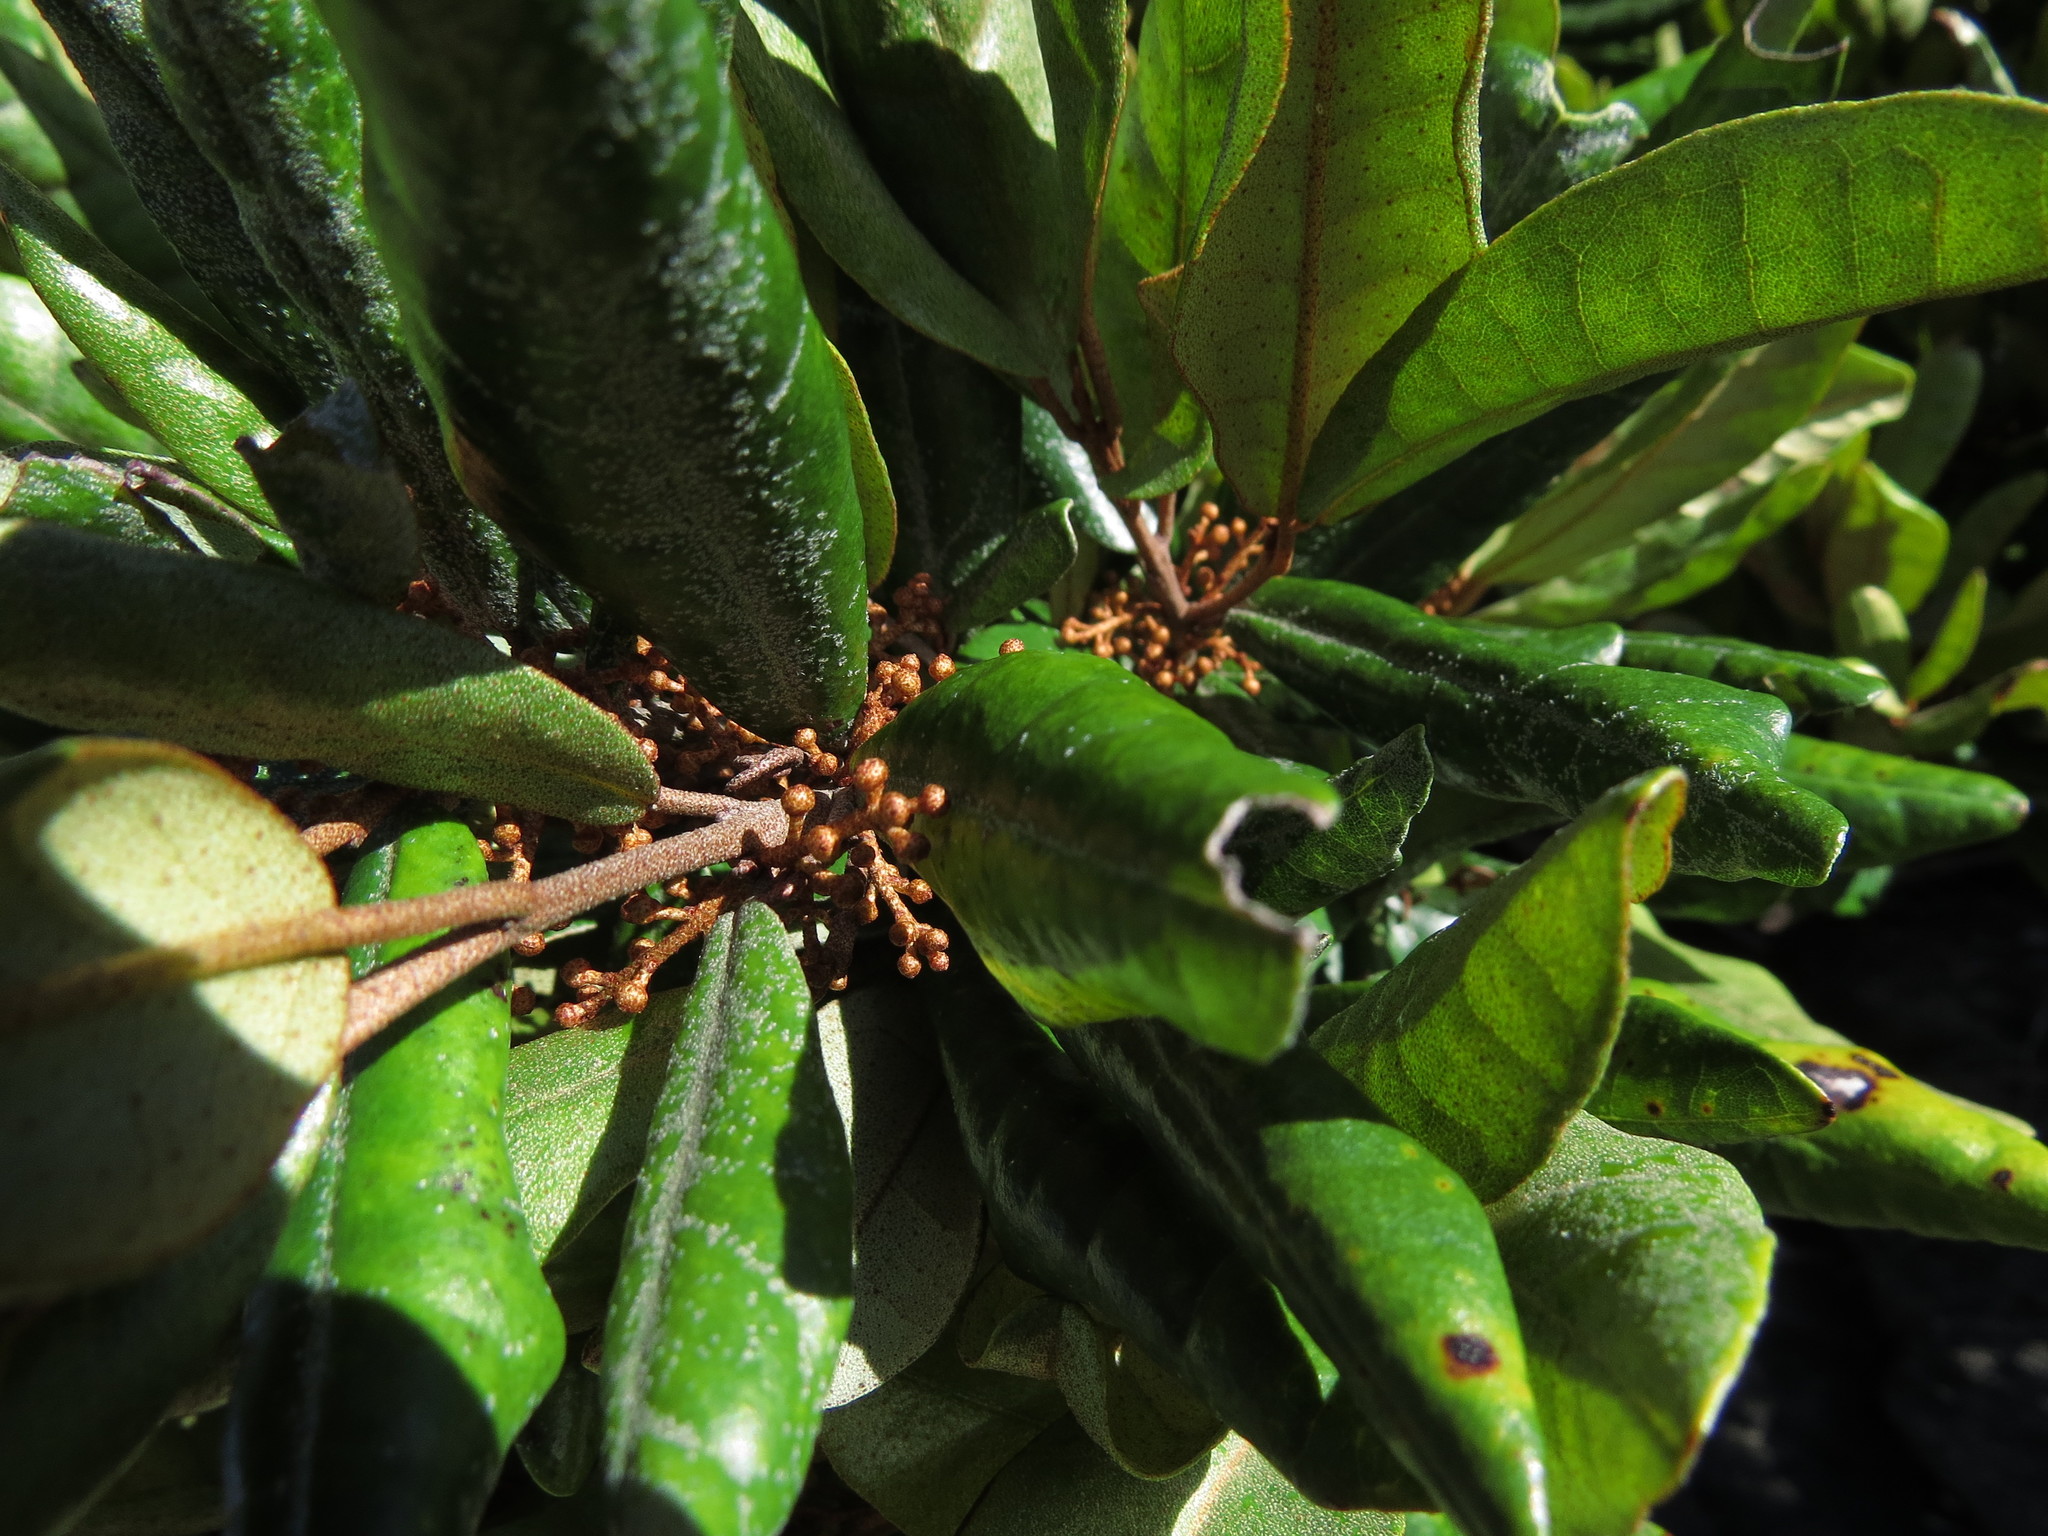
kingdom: Plantae
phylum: Tracheophyta
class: Magnoliopsida
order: Berberidopsidales
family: Aextoxicaceae
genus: Aextoxicon
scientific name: Aextoxicon punctatum
